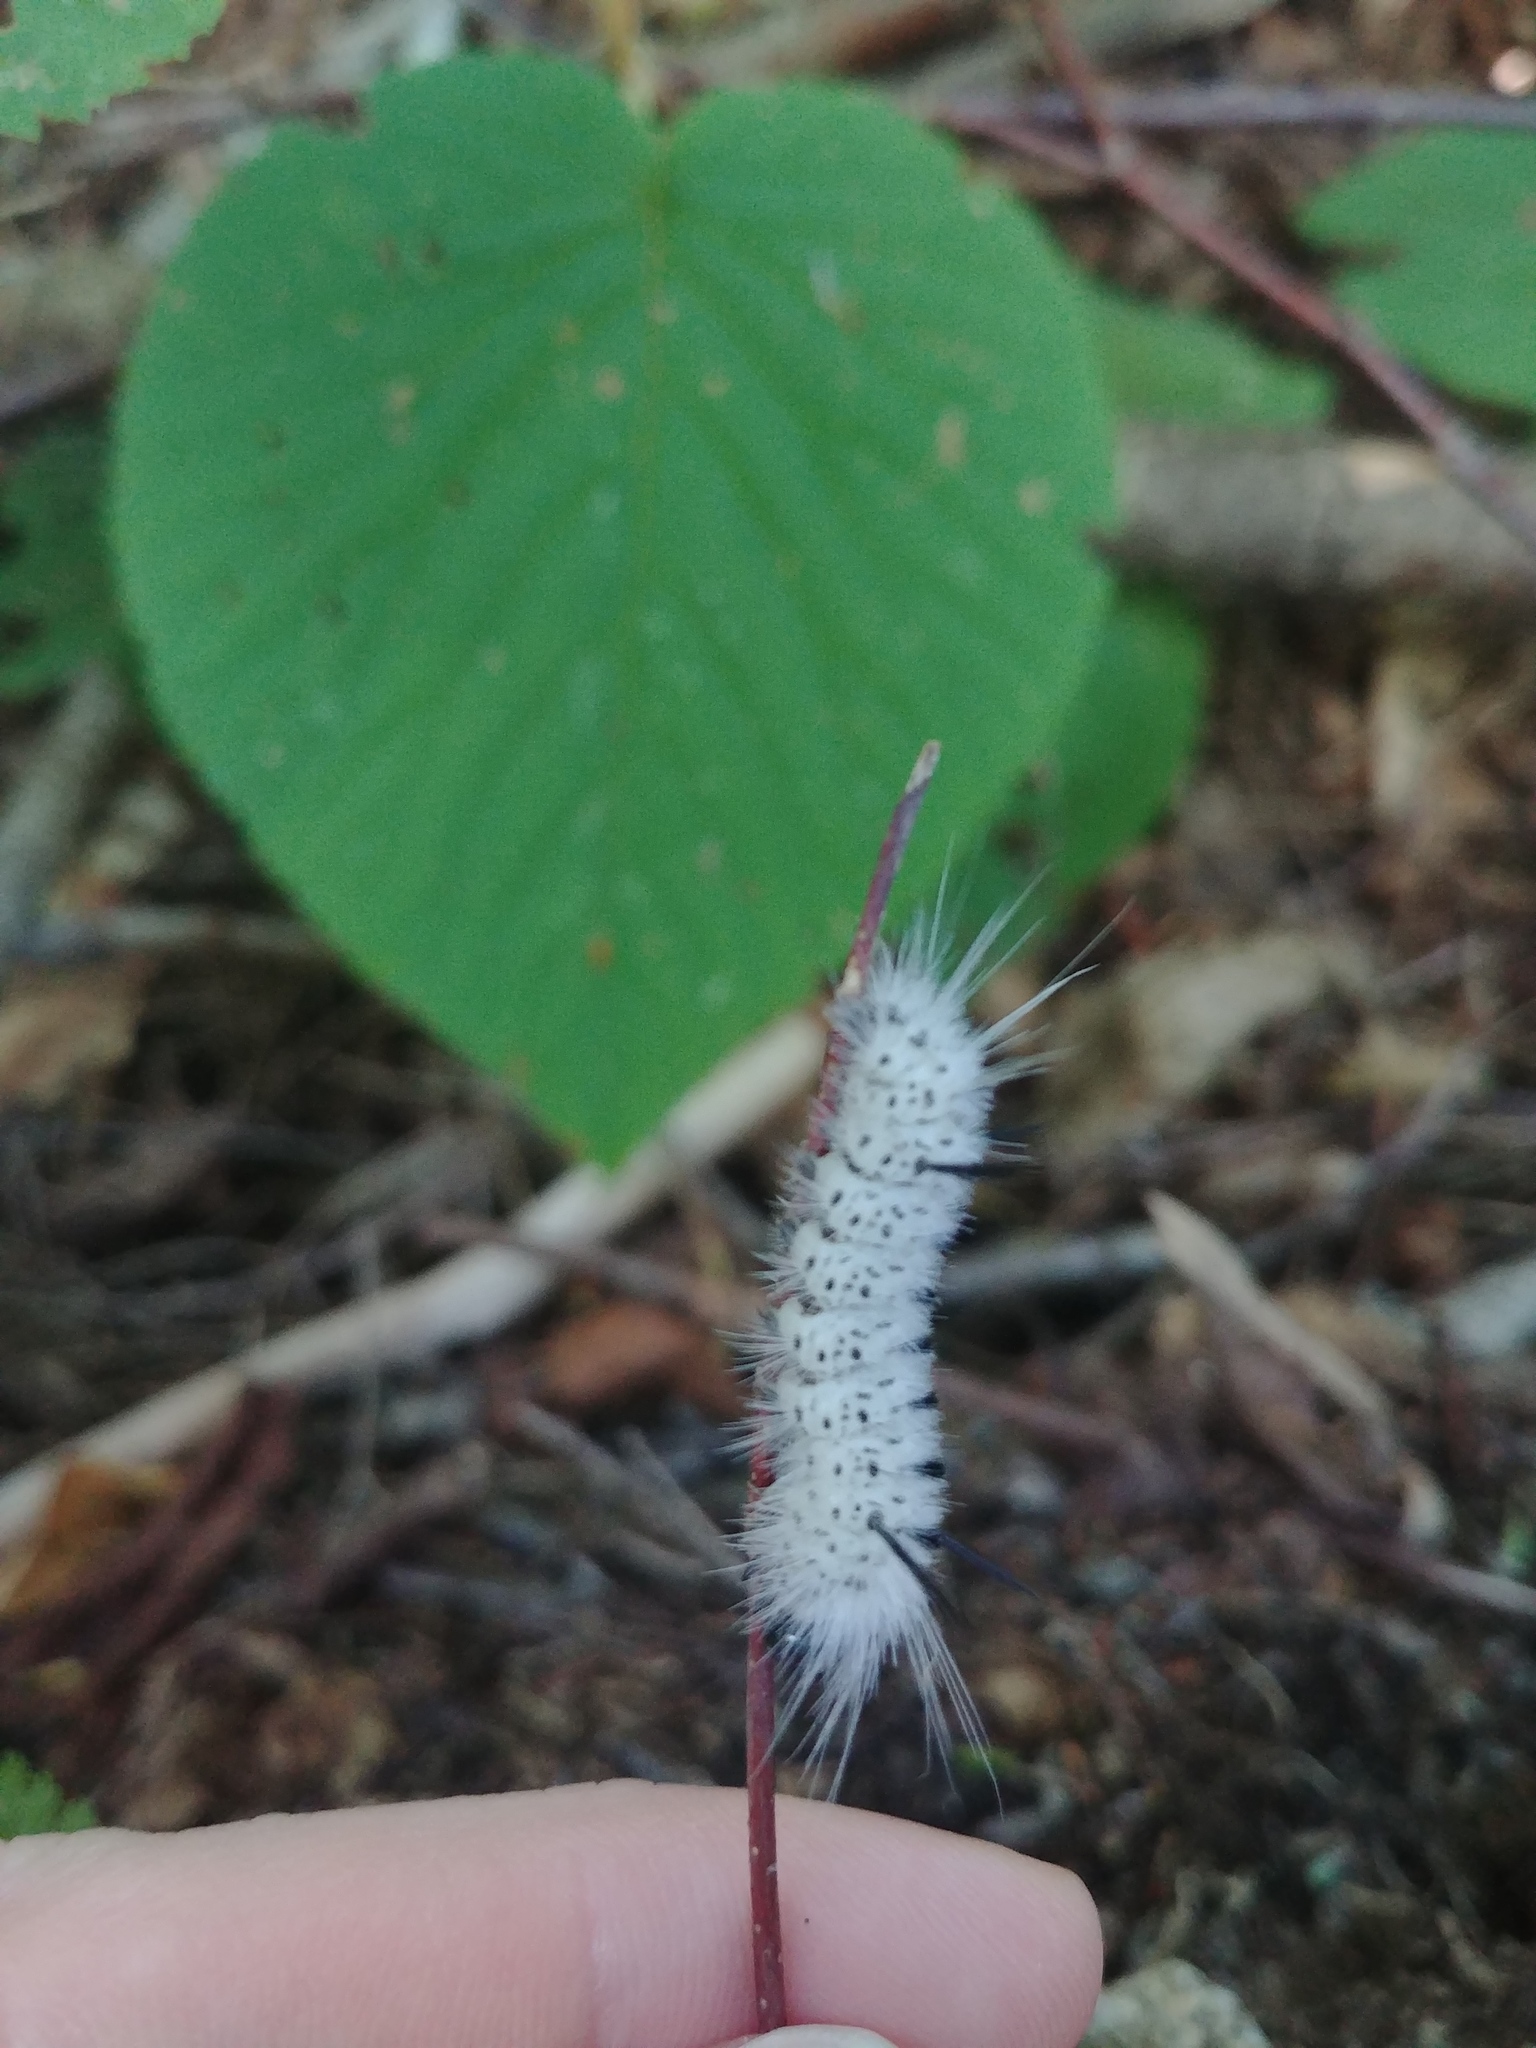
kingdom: Animalia
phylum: Arthropoda
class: Insecta
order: Lepidoptera
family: Erebidae
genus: Lophocampa
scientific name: Lophocampa caryae
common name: Hickory tussock moth
